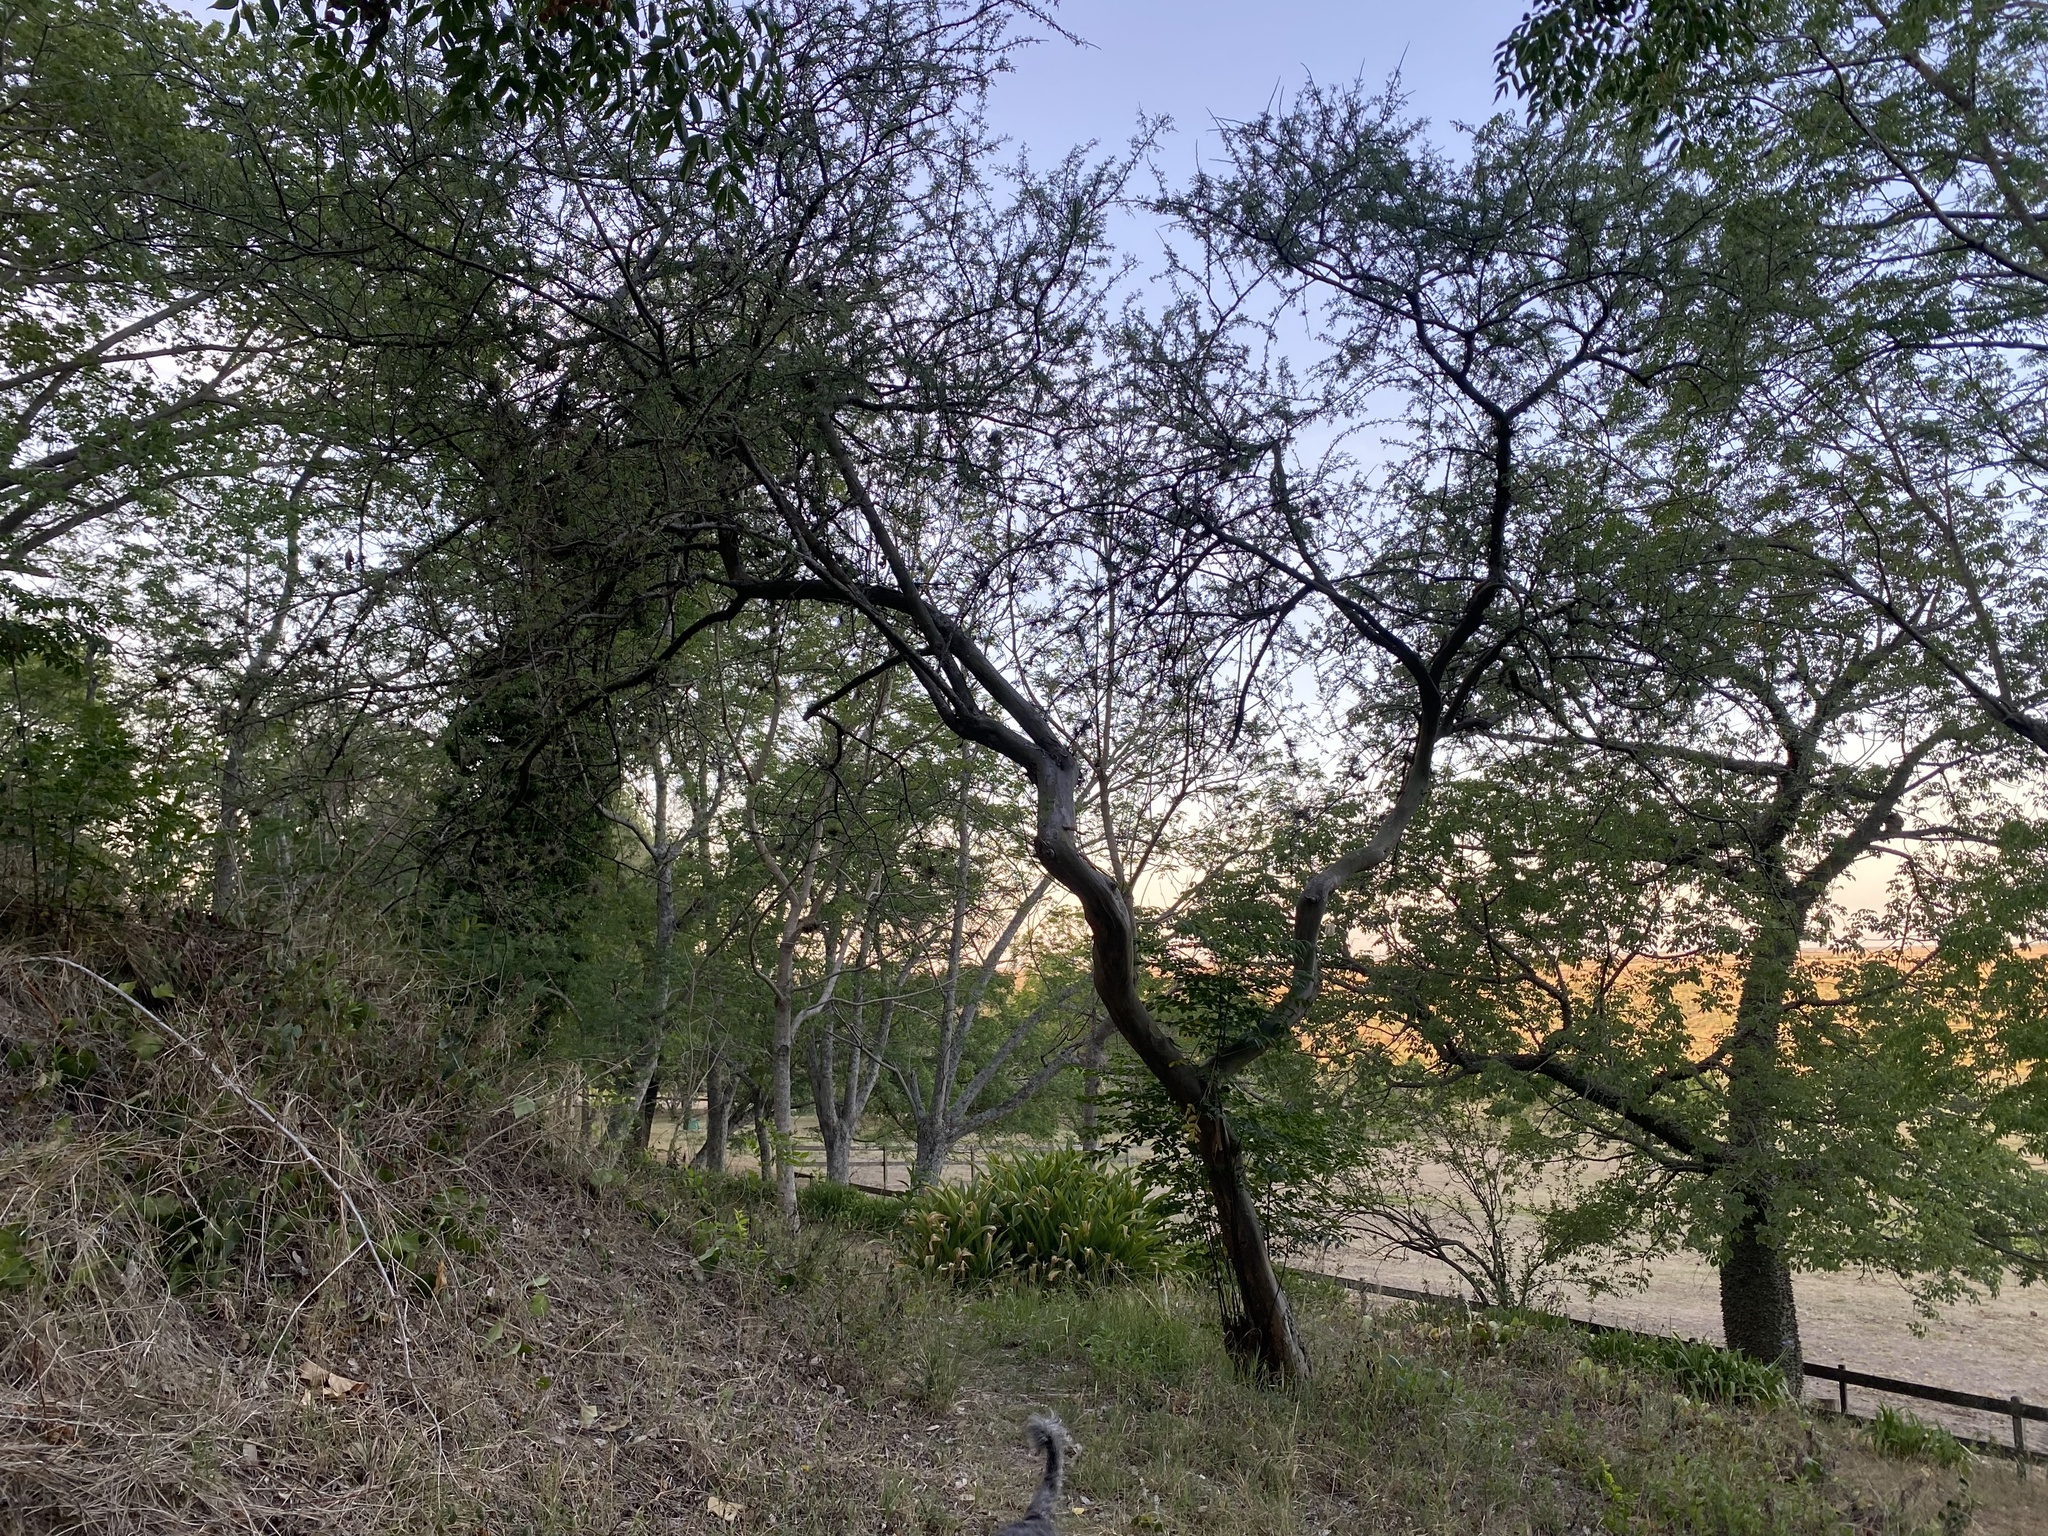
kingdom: Plantae
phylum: Tracheophyta
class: Magnoliopsida
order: Fabales
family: Fabaceae
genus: Geoffroea
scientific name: Geoffroea decorticans
